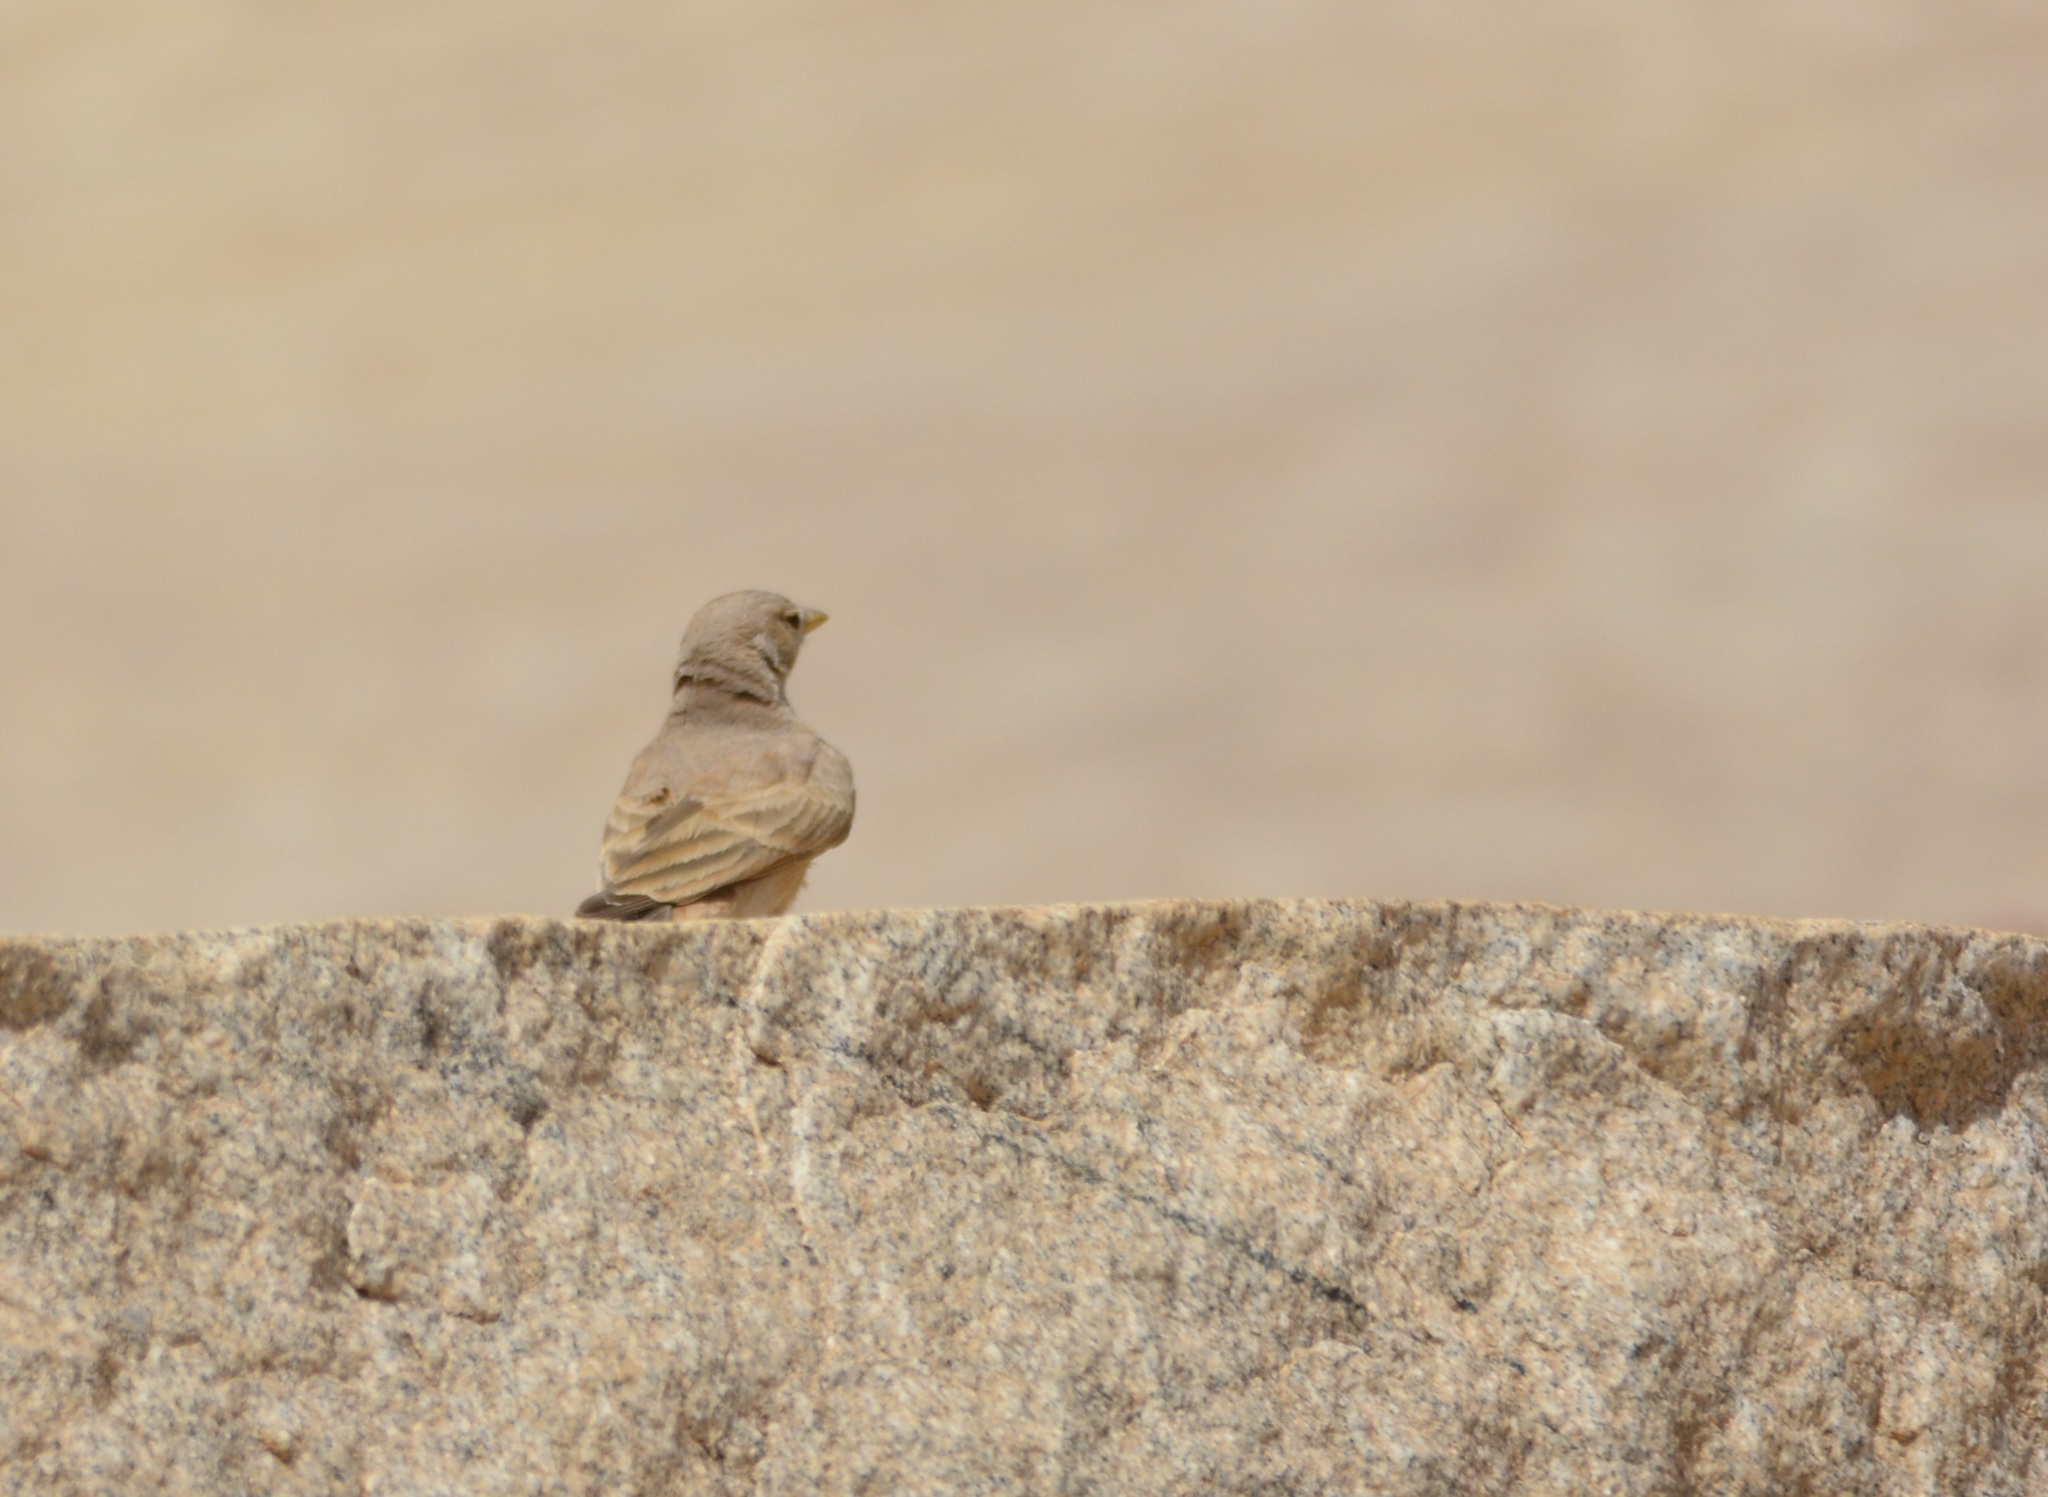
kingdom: Animalia
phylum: Chordata
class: Aves
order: Passeriformes
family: Alaudidae
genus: Ammomanes
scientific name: Ammomanes deserti
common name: Desert lark
